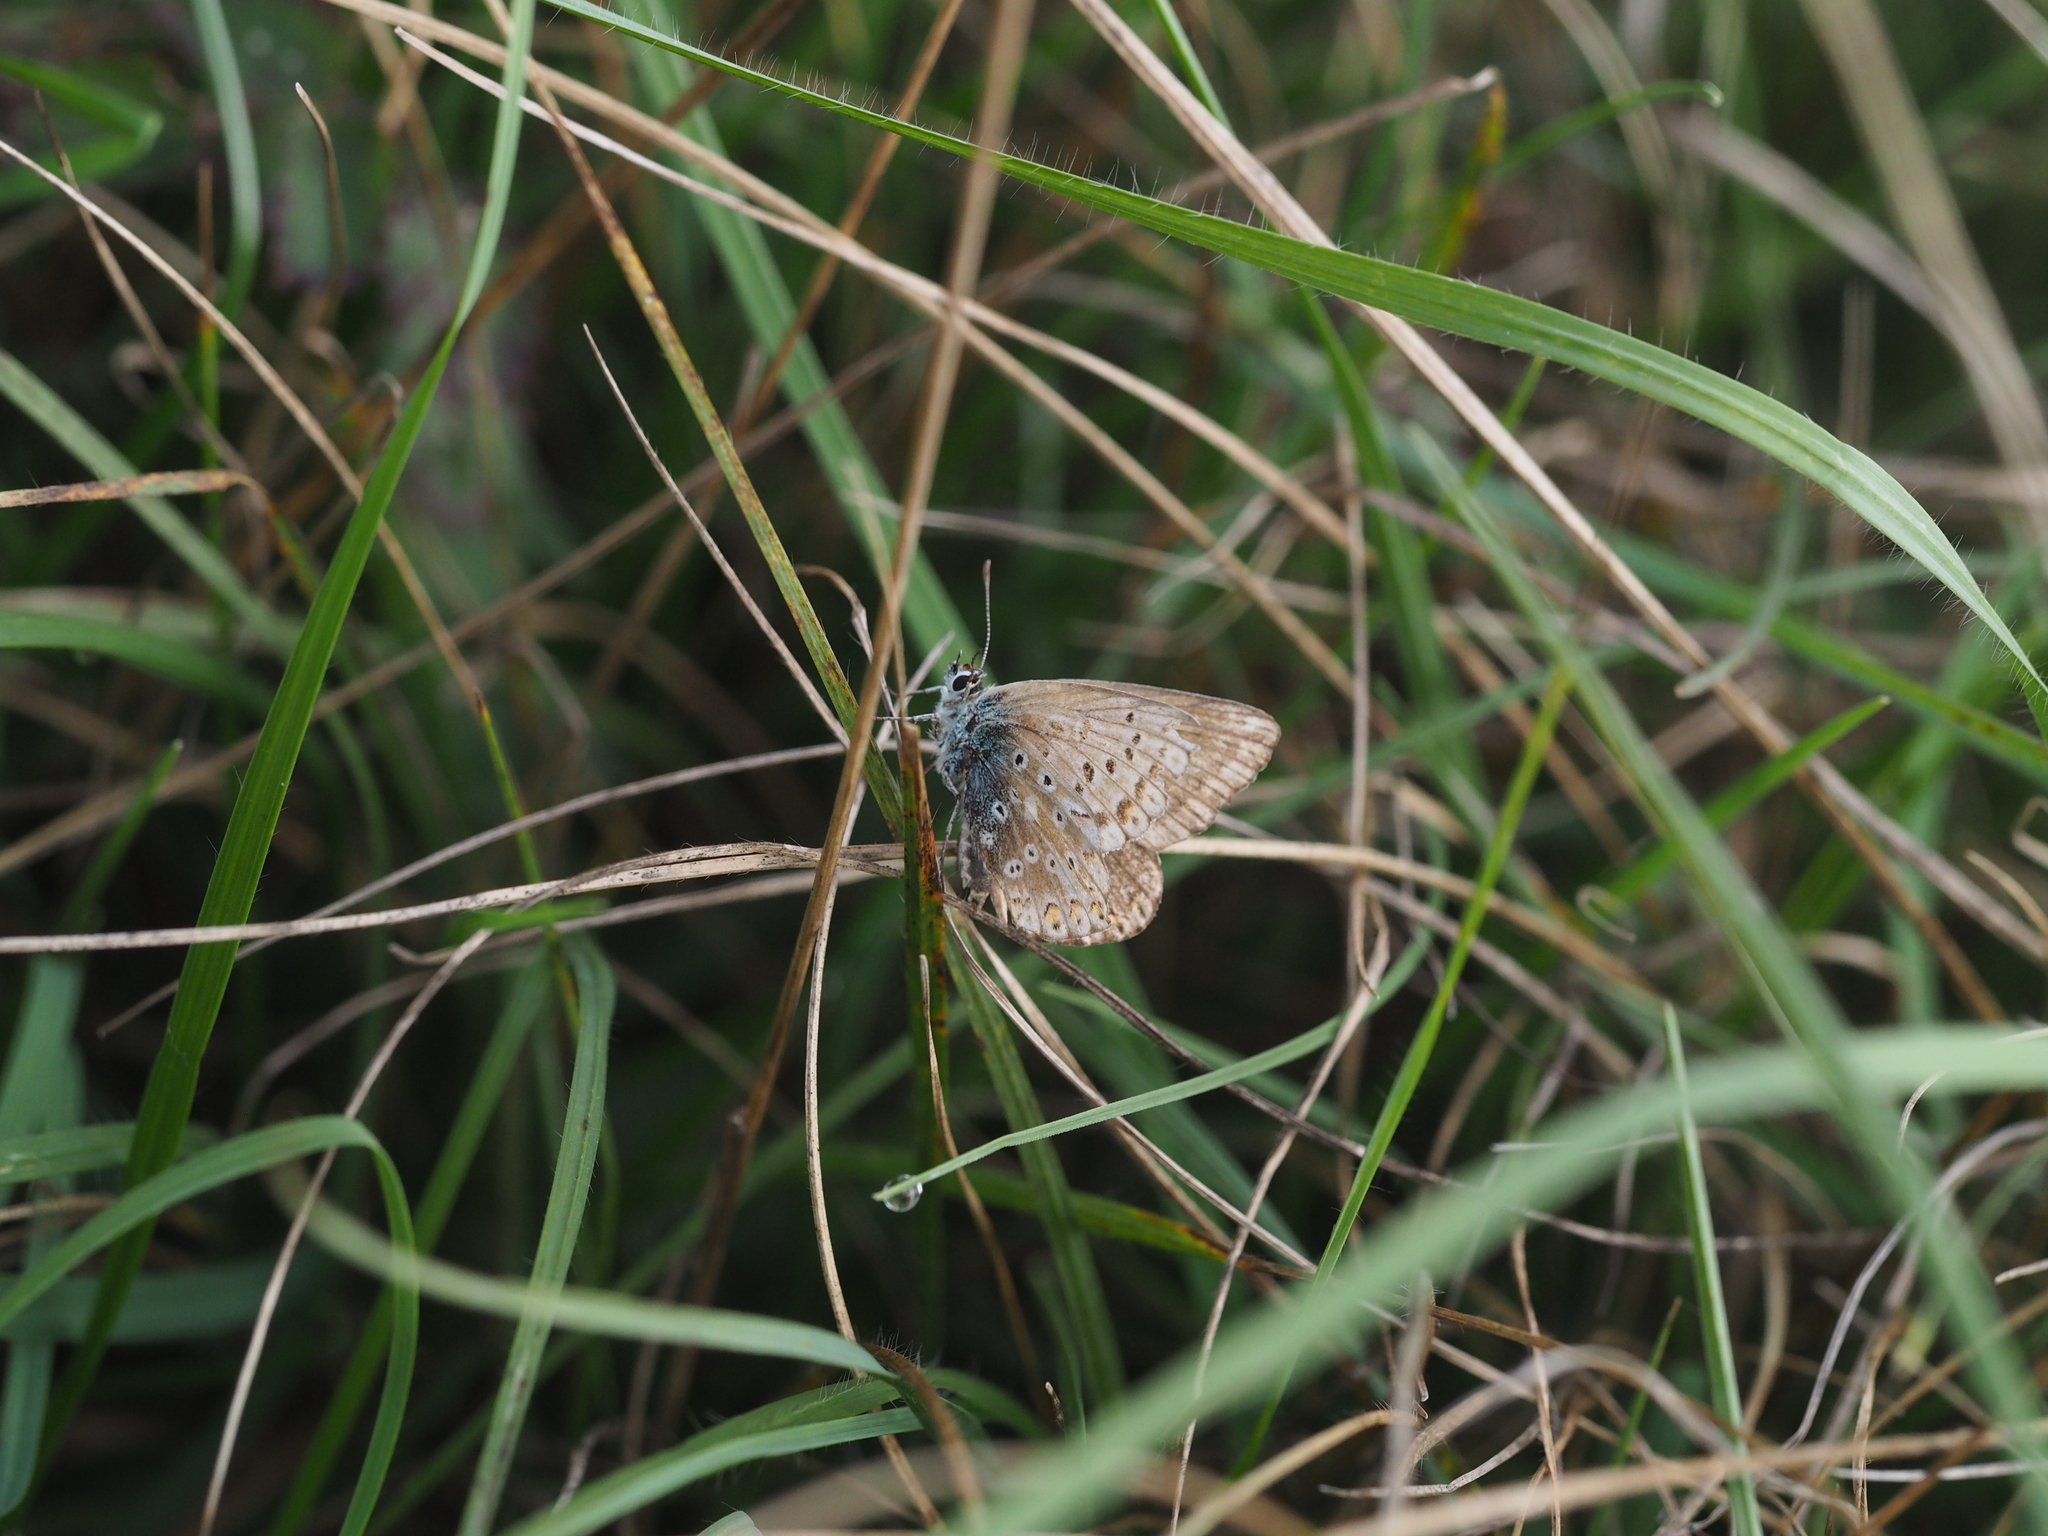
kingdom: Animalia
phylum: Arthropoda
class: Insecta
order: Lepidoptera
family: Lycaenidae
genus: Lysandra
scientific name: Lysandra coridon
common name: Chalkhill blue
